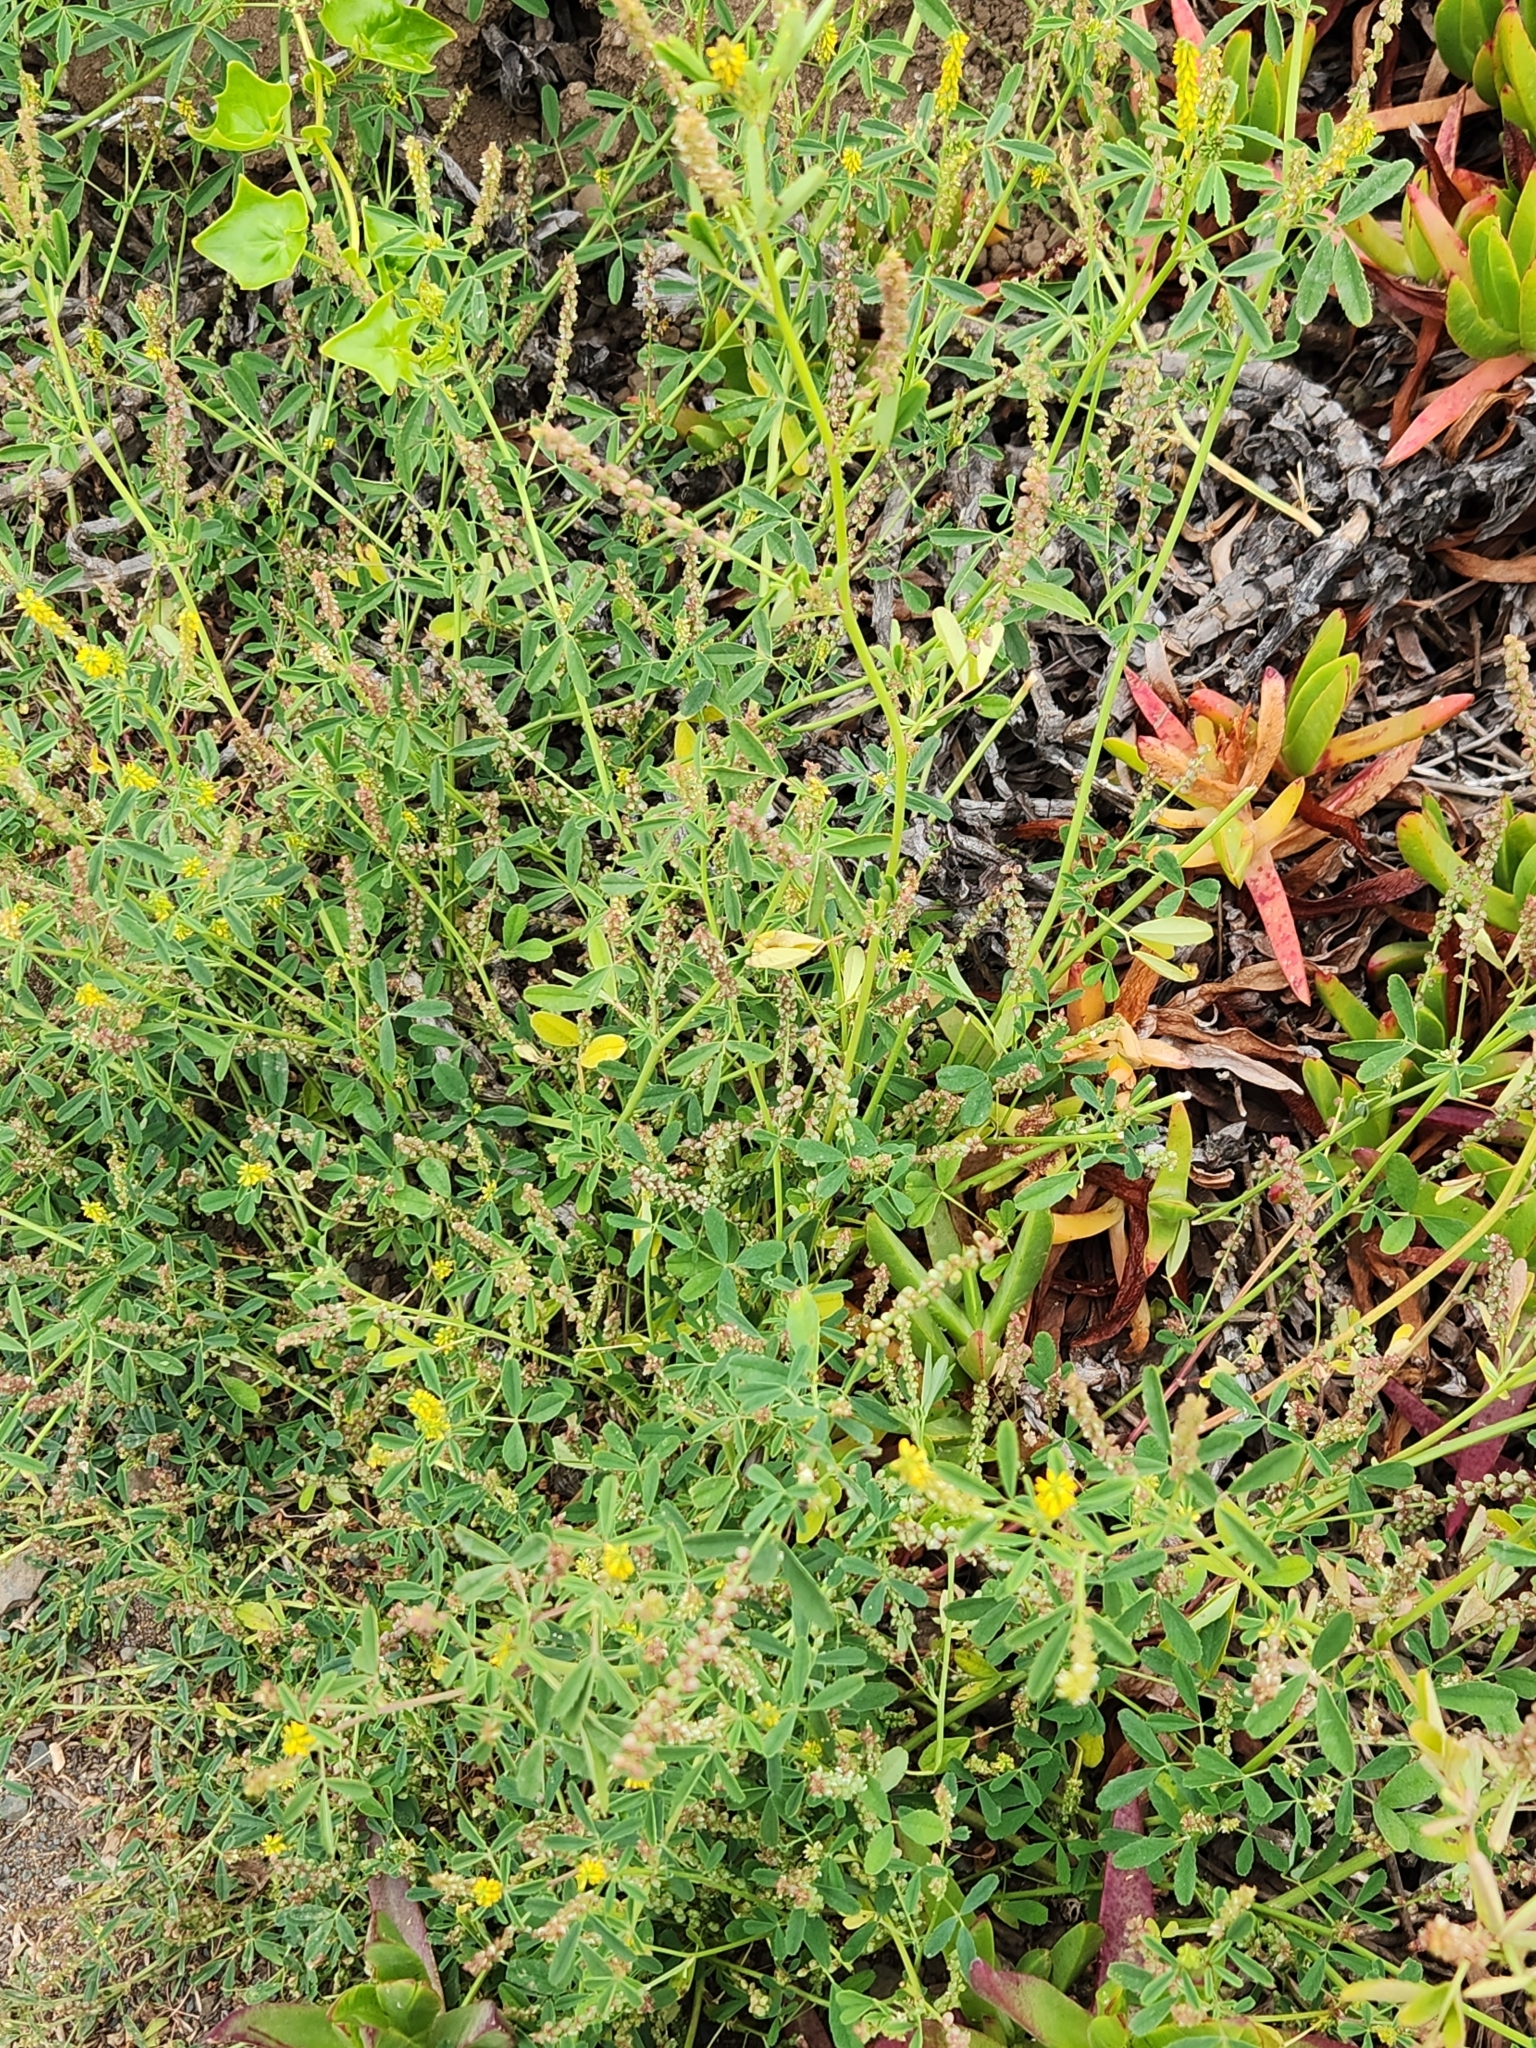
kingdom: Plantae
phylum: Tracheophyta
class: Magnoliopsida
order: Fabales
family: Fabaceae
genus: Melilotus
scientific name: Melilotus indicus
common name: Small melilot
